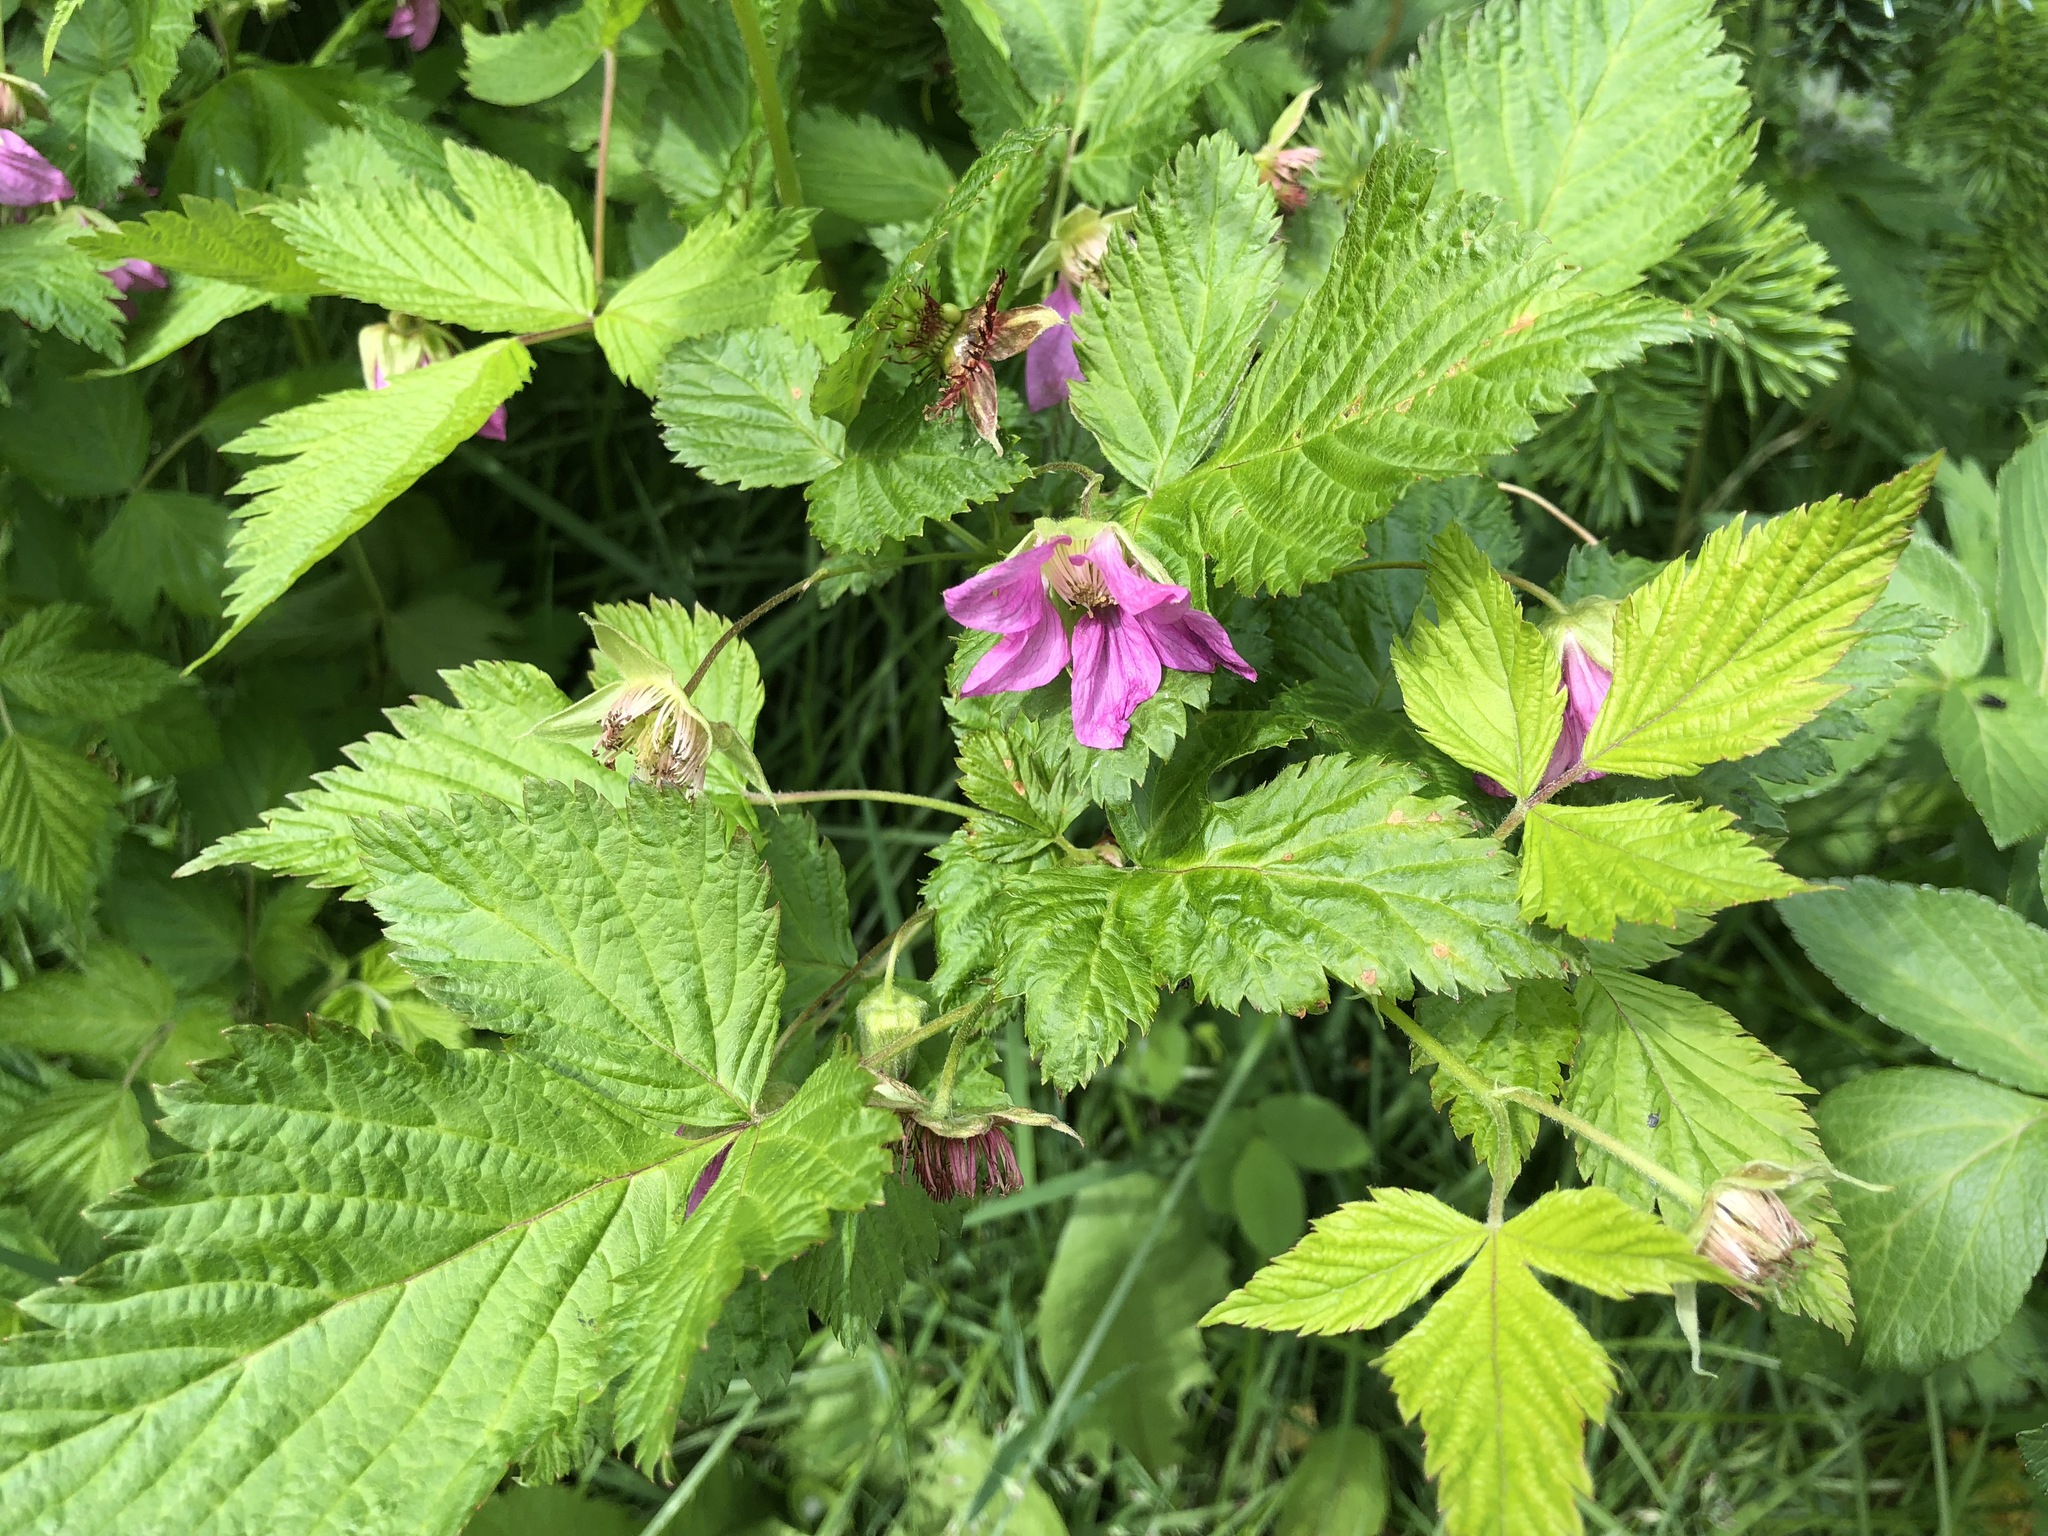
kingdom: Plantae
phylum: Tracheophyta
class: Magnoliopsida
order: Rosales
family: Rosaceae
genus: Rubus
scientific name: Rubus spectabilis
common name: Salmonberry
